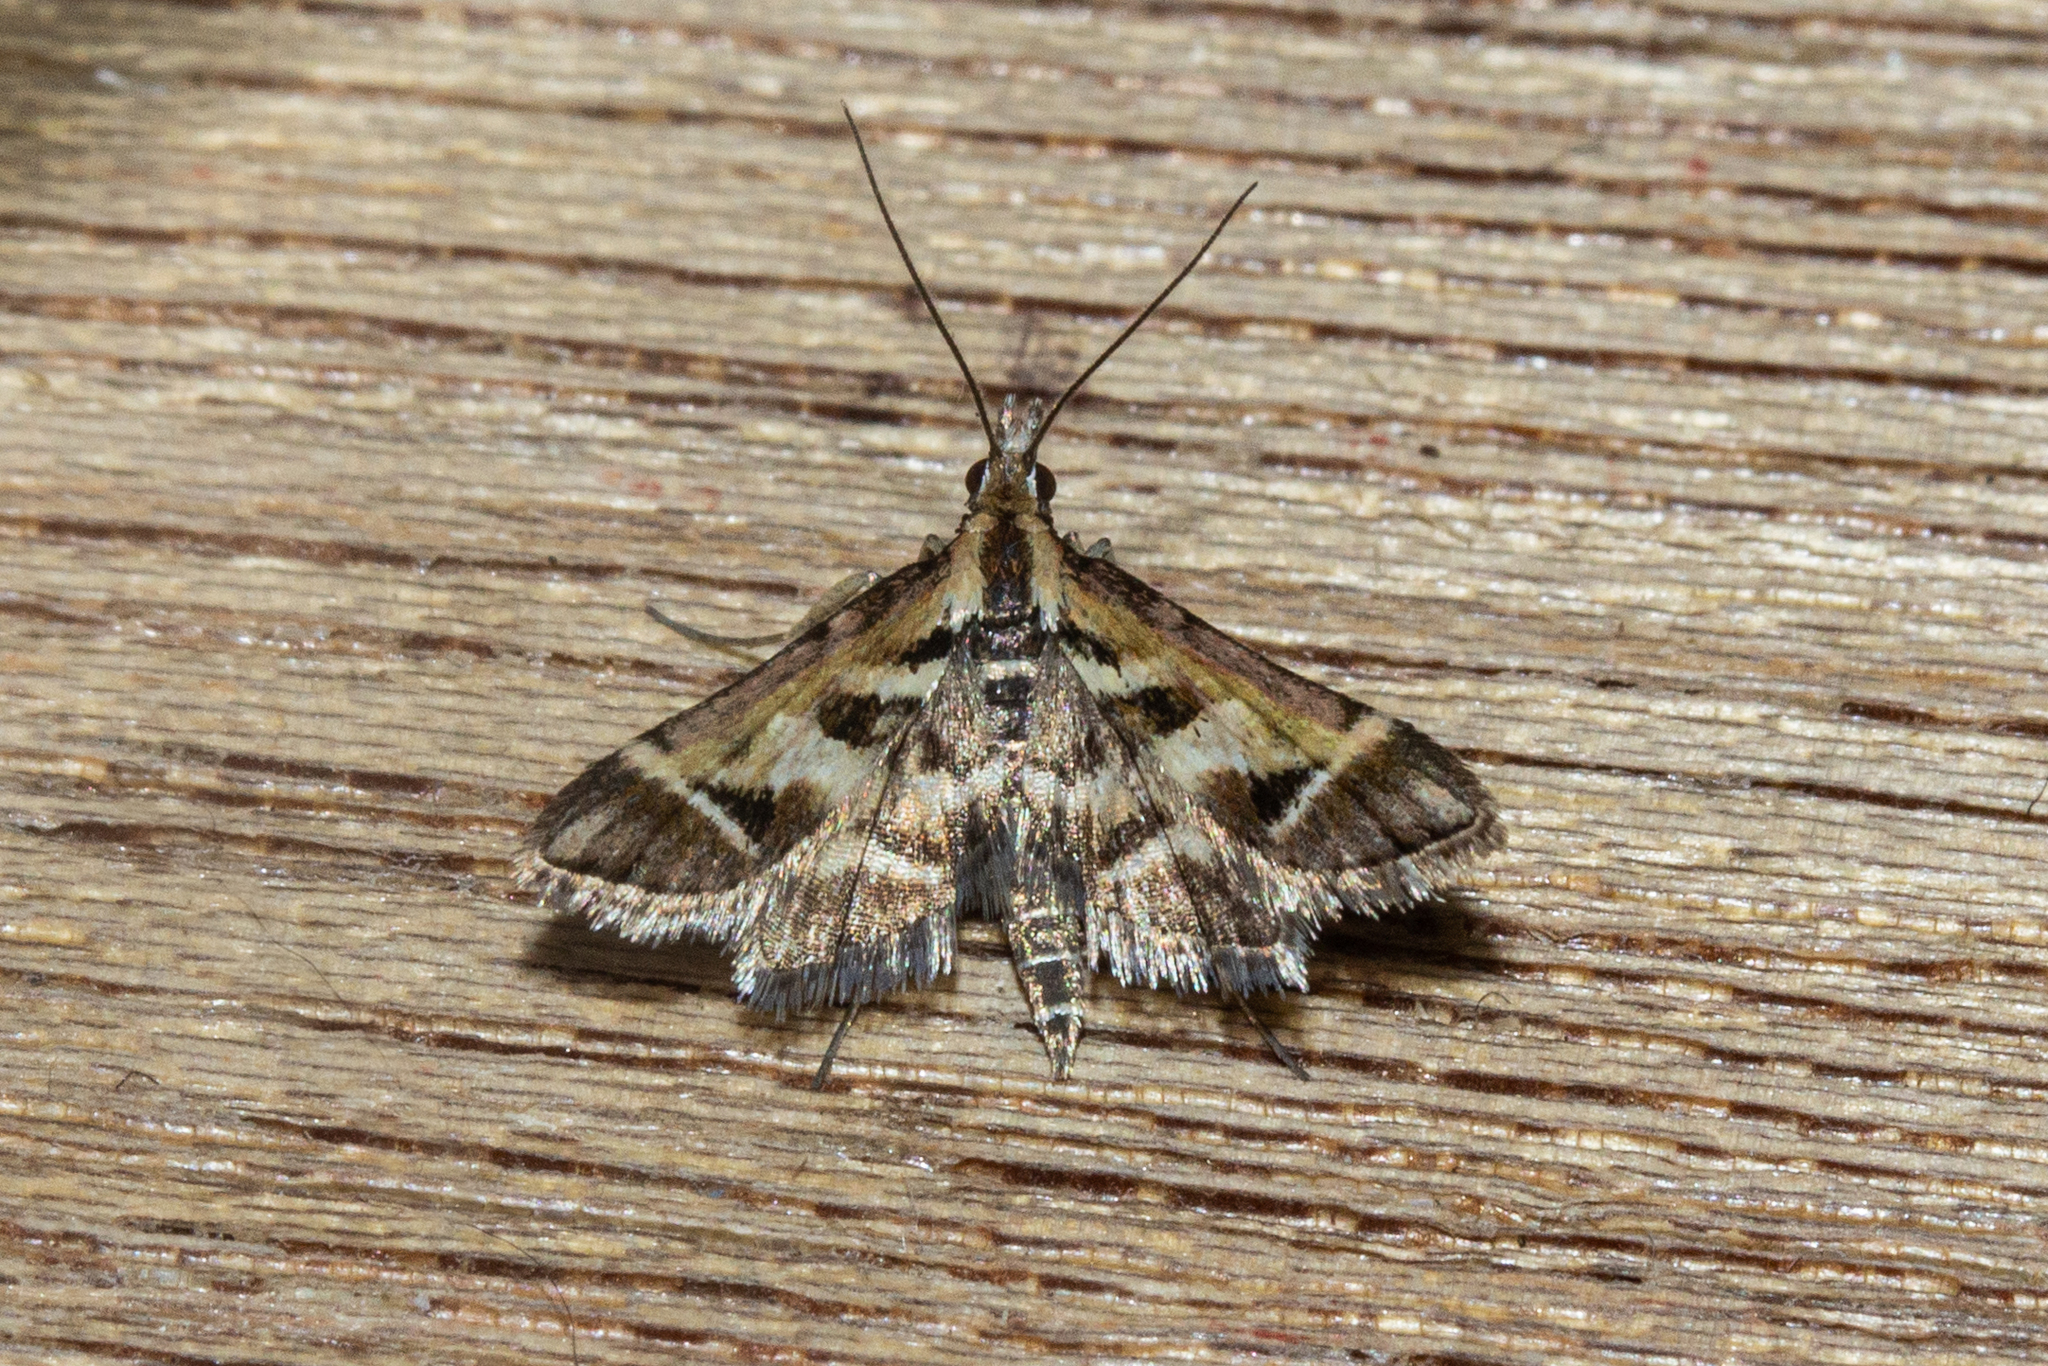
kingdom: Animalia
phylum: Arthropoda
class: Insecta
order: Lepidoptera
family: Crambidae
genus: Diasemia
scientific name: Diasemia grammalis
